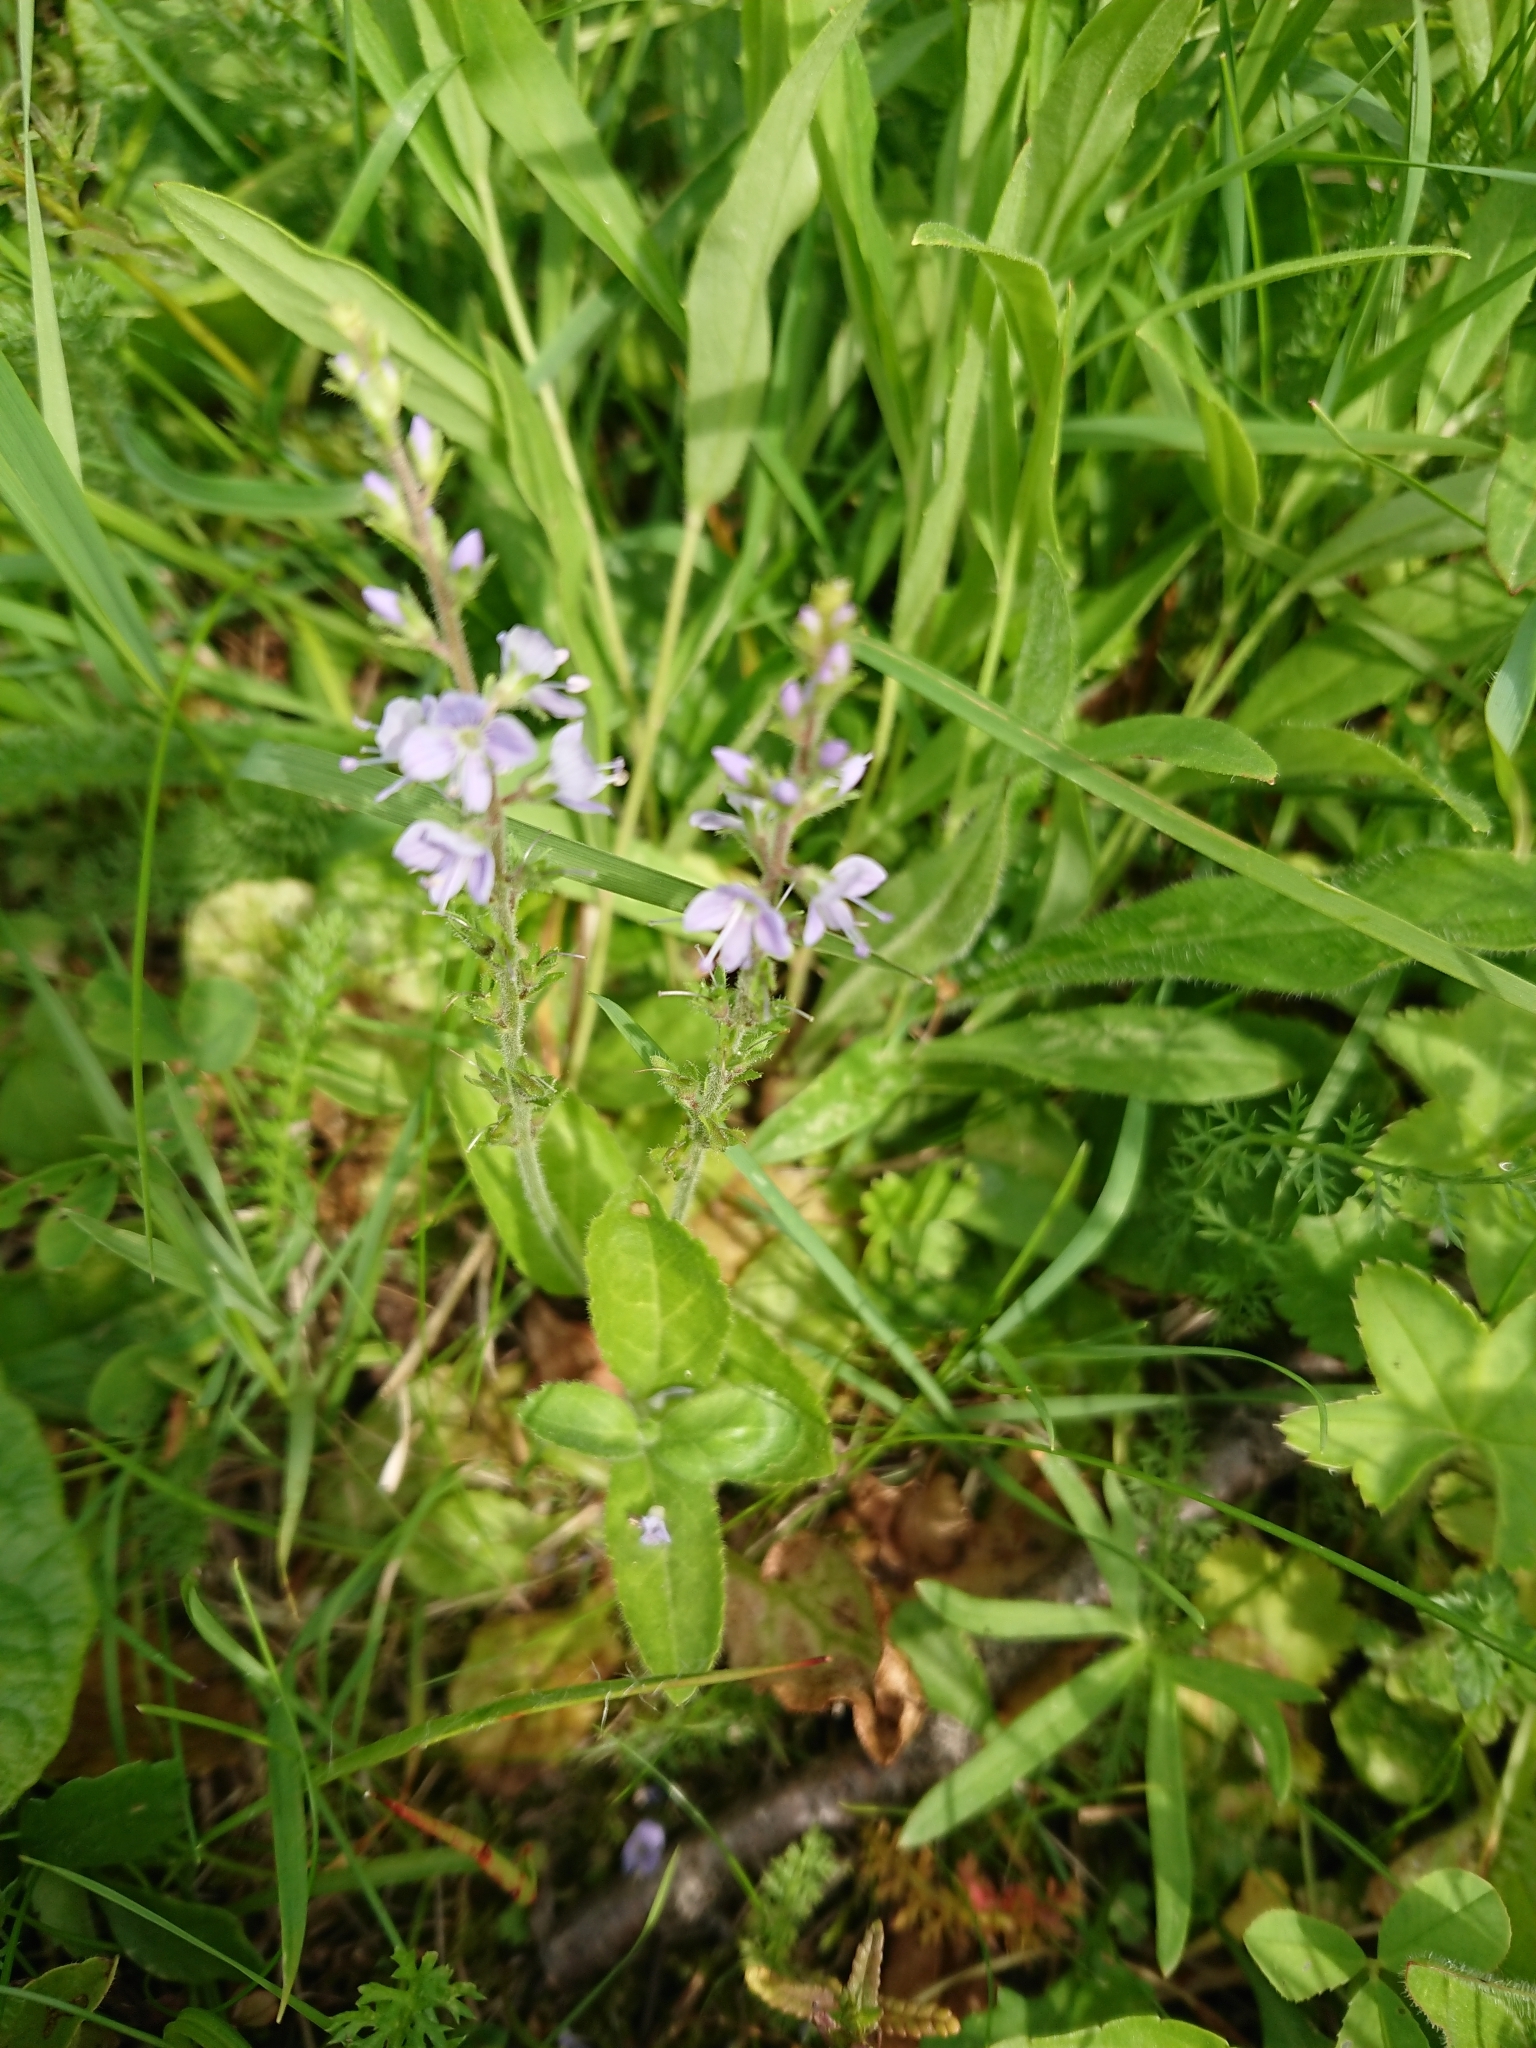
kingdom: Plantae
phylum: Tracheophyta
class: Magnoliopsida
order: Lamiales
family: Plantaginaceae
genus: Veronica
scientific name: Veronica officinalis
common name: Common speedwell
